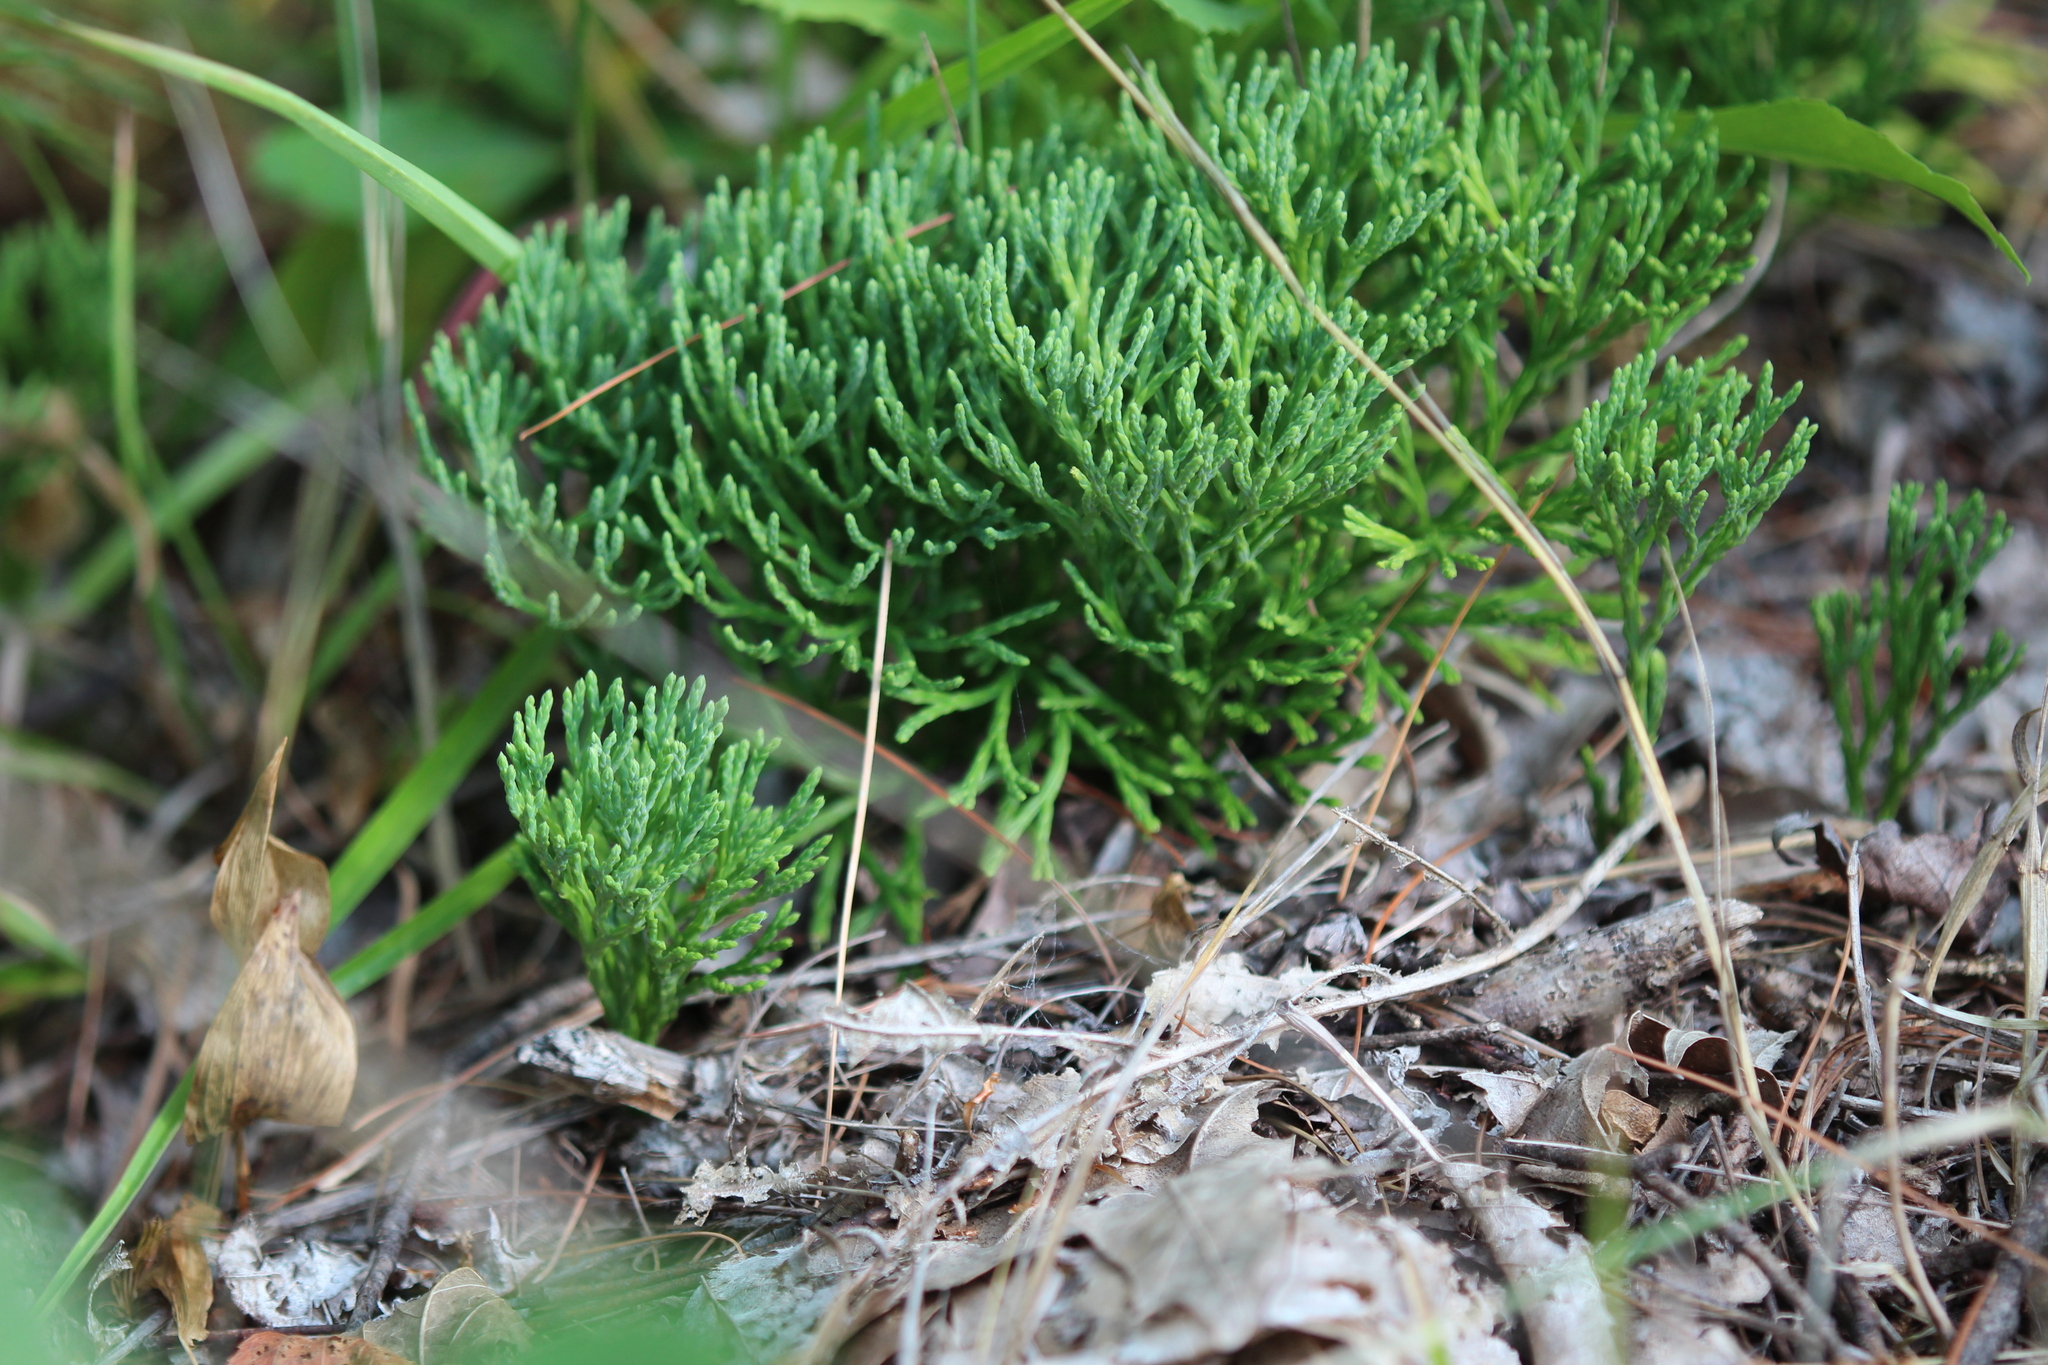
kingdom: Plantae
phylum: Tracheophyta
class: Lycopodiopsida
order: Lycopodiales
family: Lycopodiaceae
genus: Diphasiastrum
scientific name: Diphasiastrum tristachyum
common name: Blue ground-cedar
